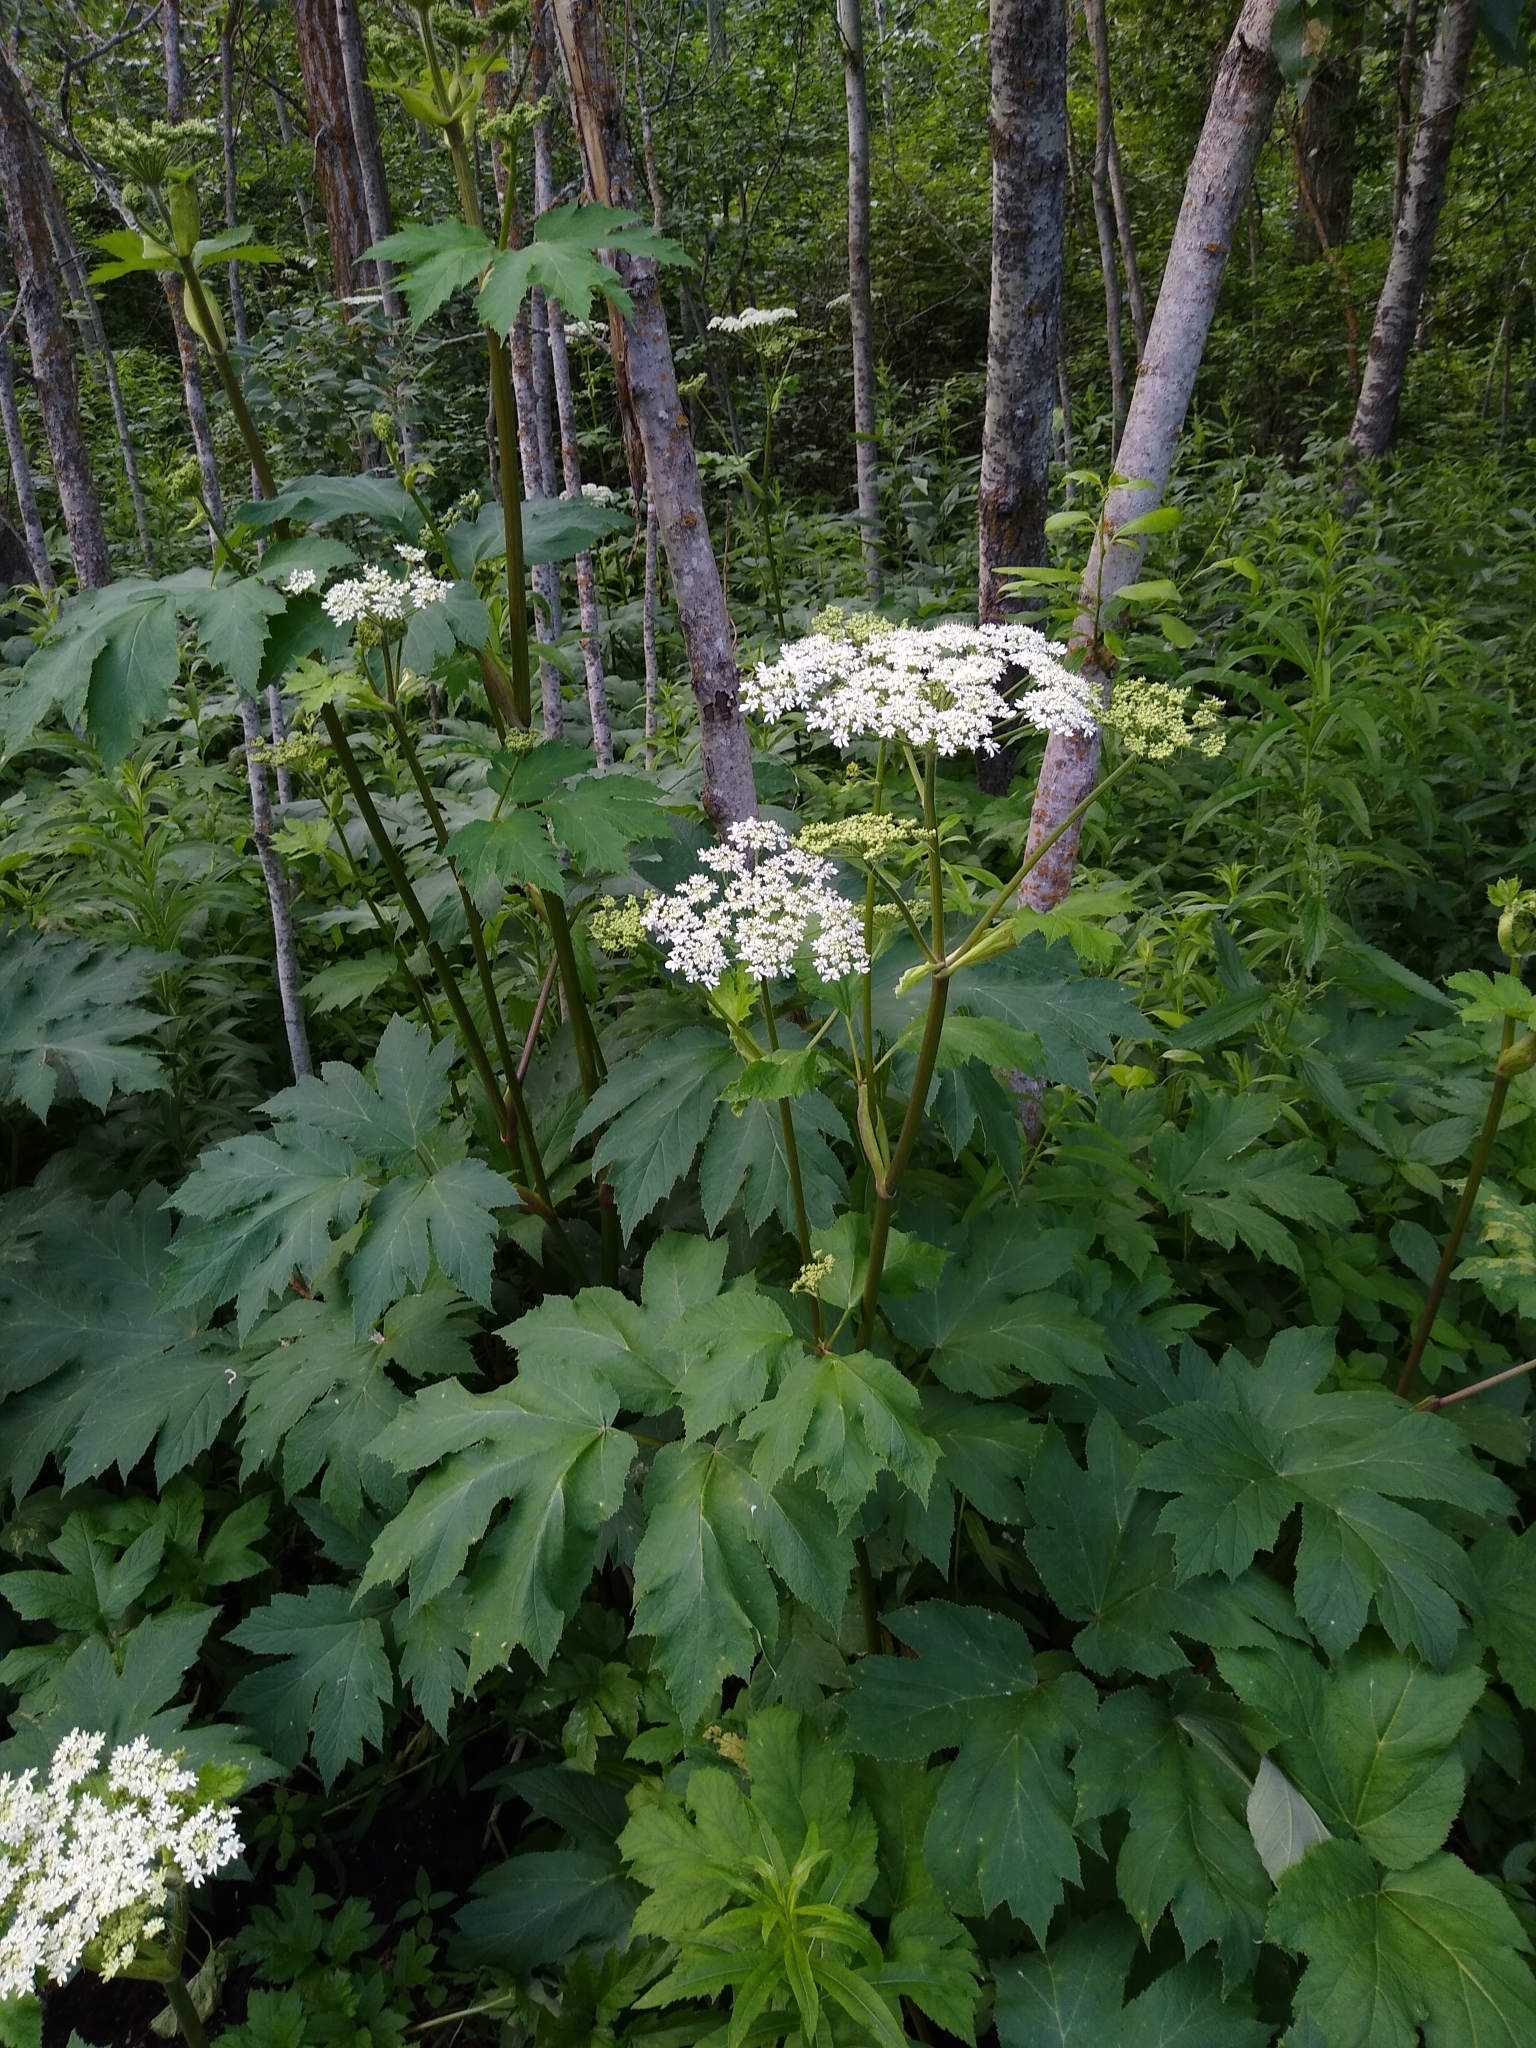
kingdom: Plantae
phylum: Tracheophyta
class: Magnoliopsida
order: Apiales
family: Apiaceae
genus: Heracleum
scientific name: Heracleum maximum
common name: American cow parsnip
